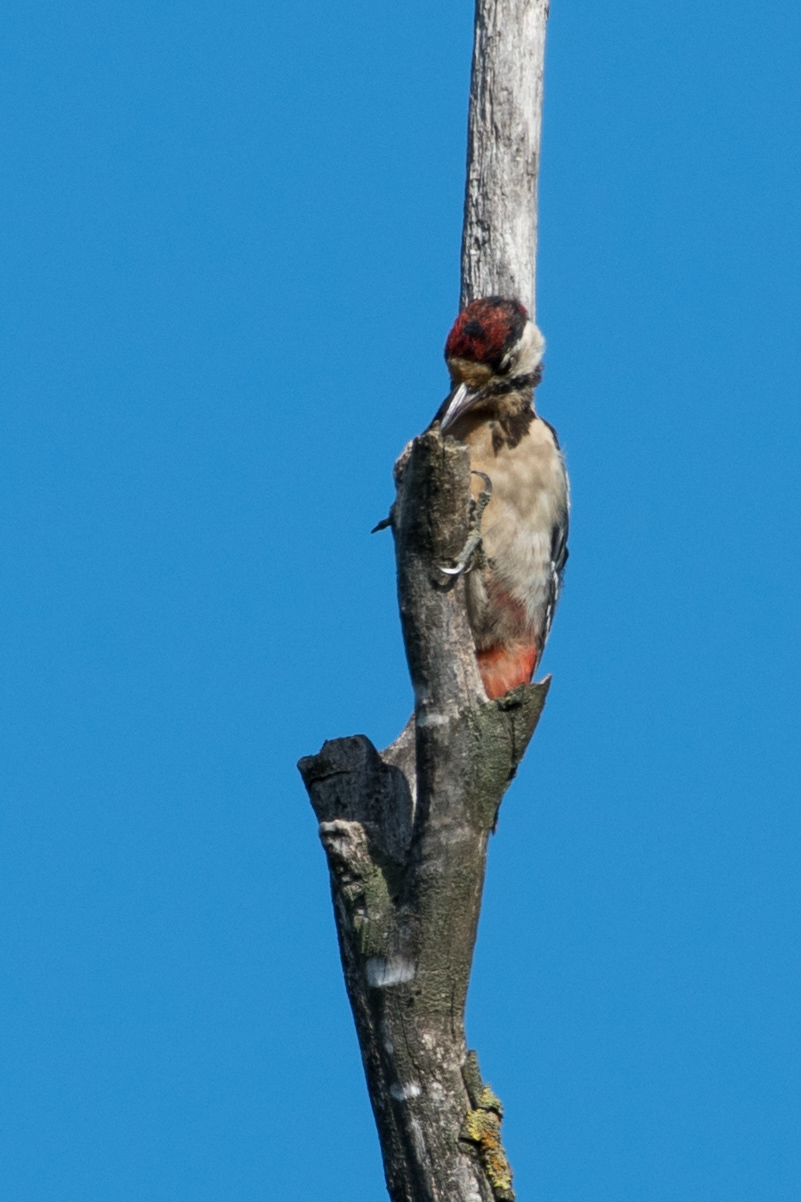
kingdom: Animalia
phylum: Chordata
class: Aves
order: Piciformes
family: Picidae
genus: Dendrocopos
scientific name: Dendrocopos major
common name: Great spotted woodpecker
